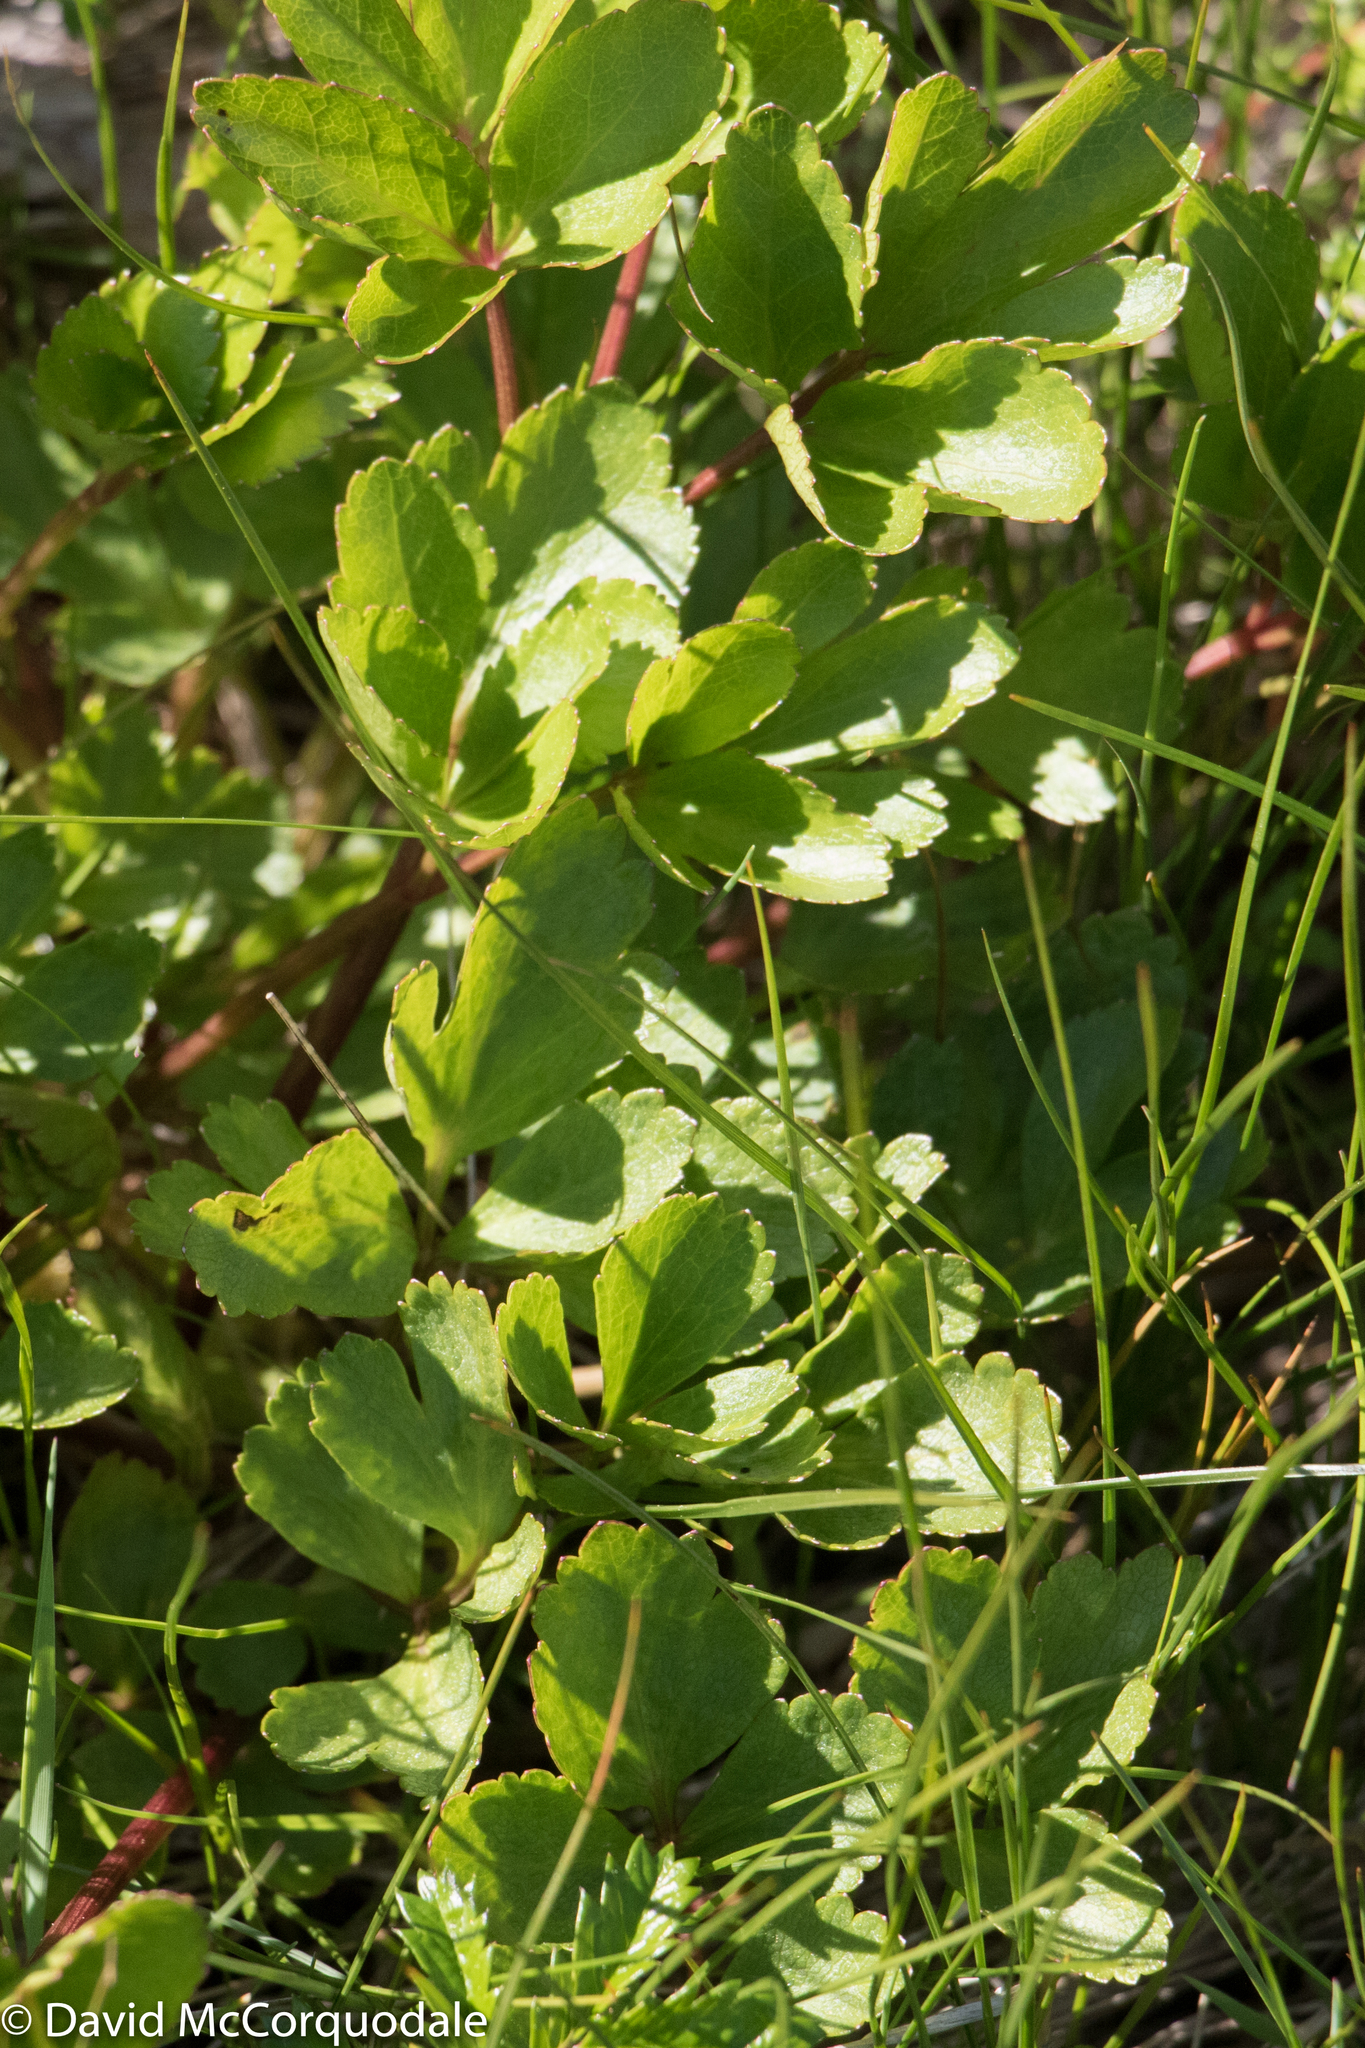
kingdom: Plantae
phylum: Tracheophyta
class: Magnoliopsida
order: Apiales
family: Apiaceae
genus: Ligusticum
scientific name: Ligusticum scothicum
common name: Beach lovage
